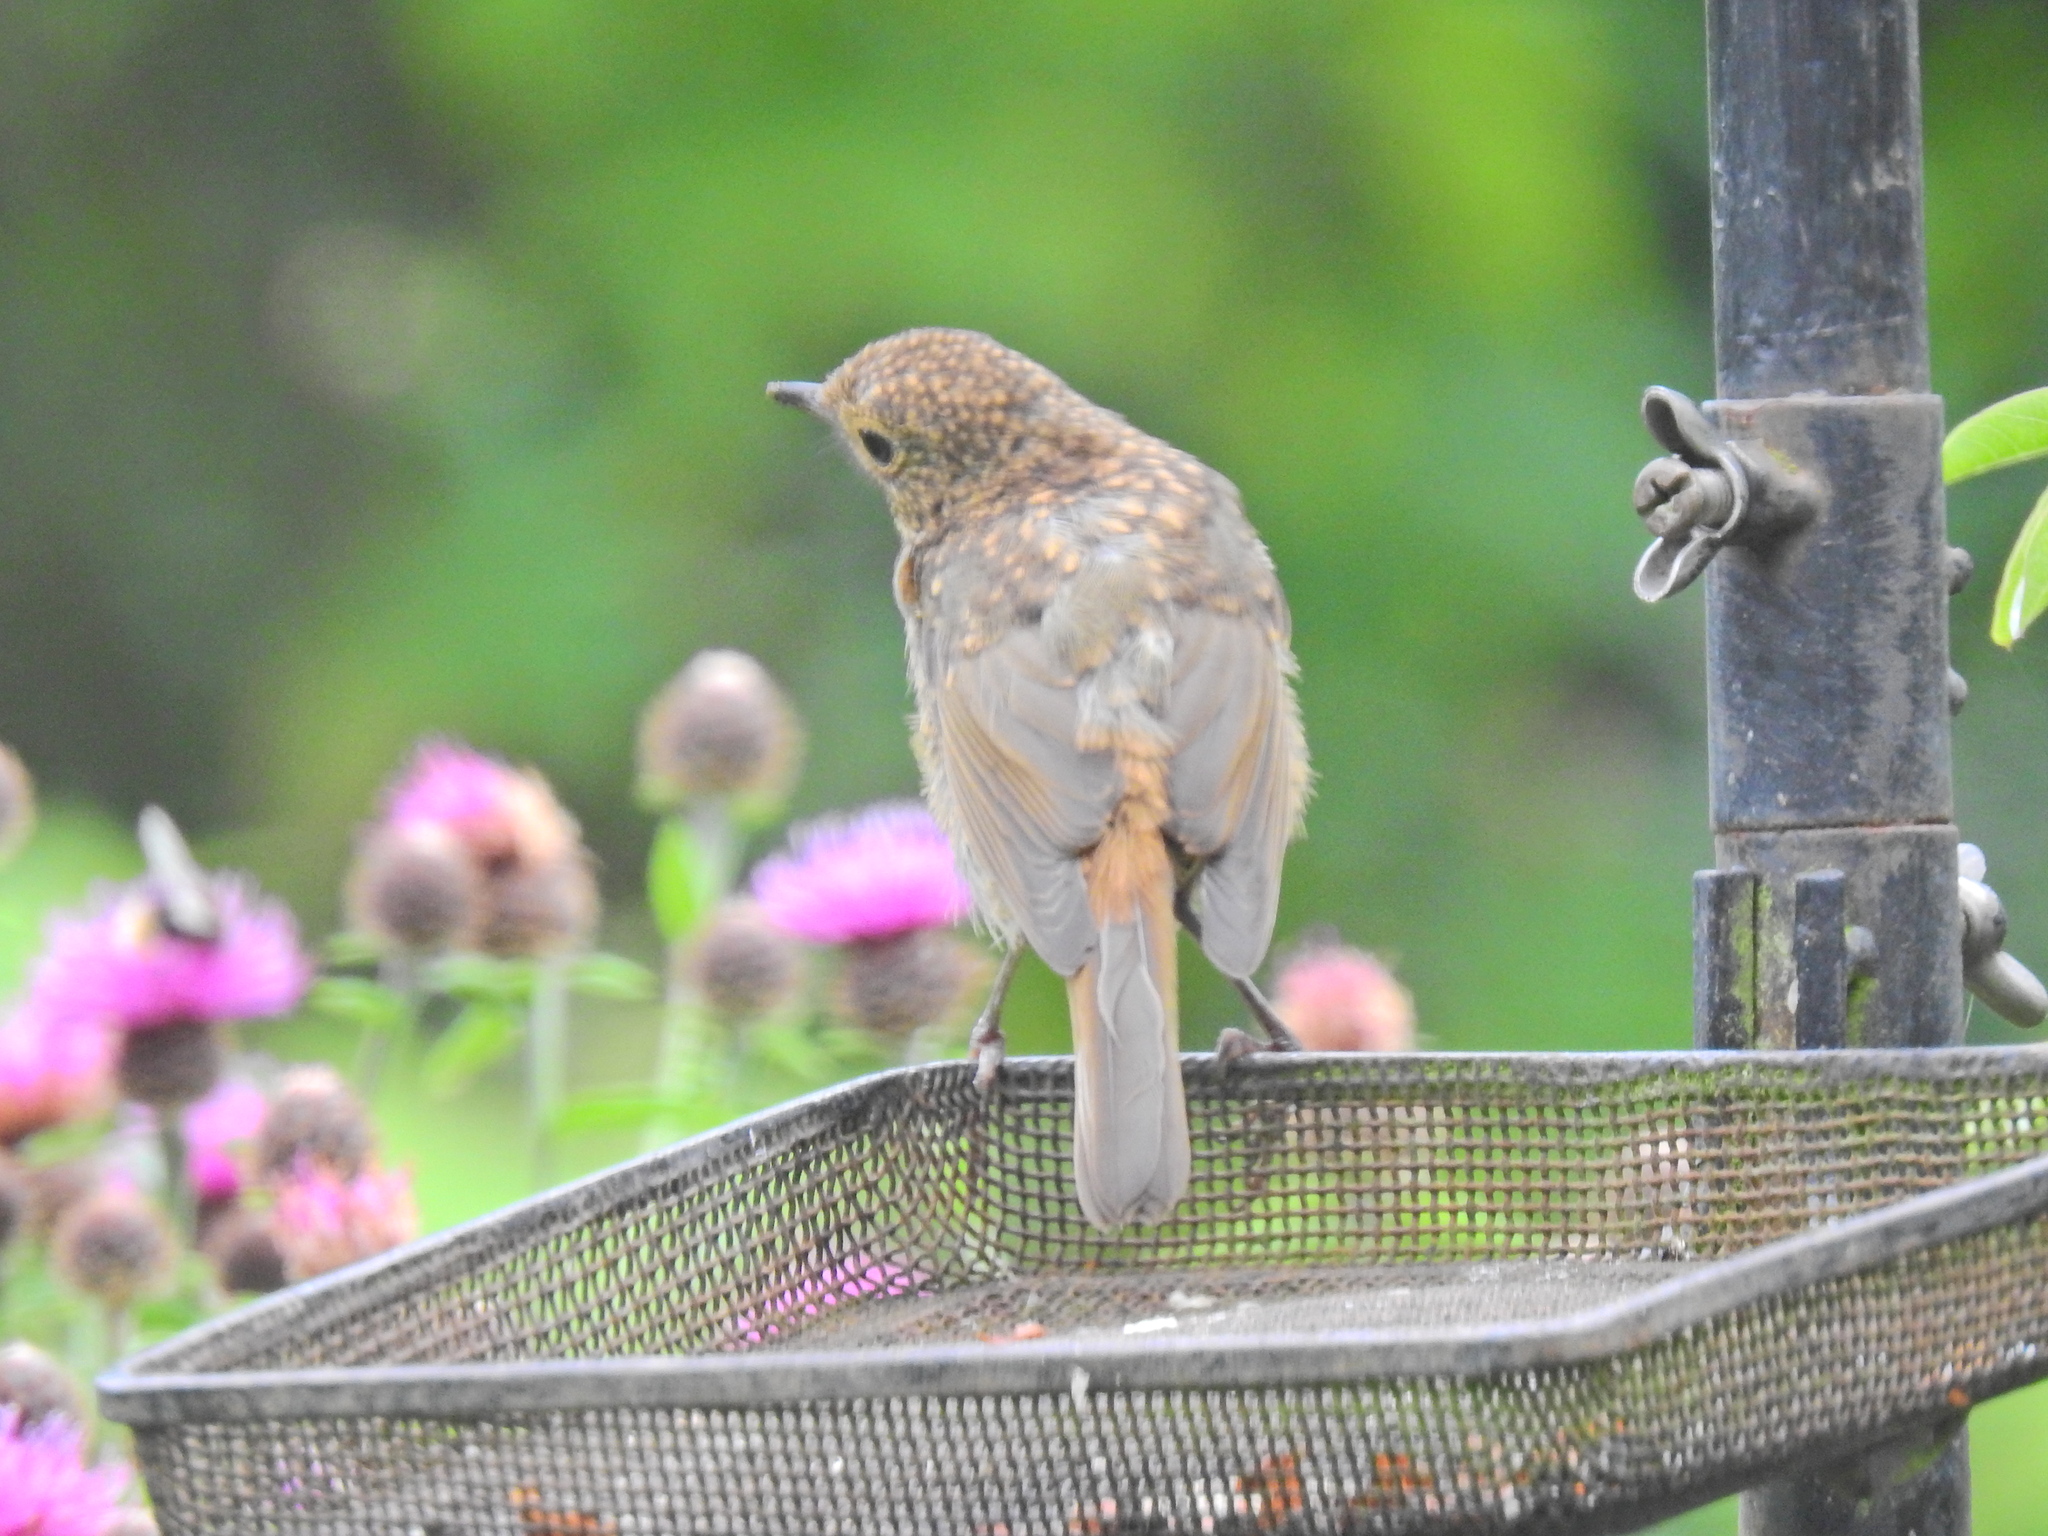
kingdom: Animalia
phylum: Chordata
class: Aves
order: Passeriformes
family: Muscicapidae
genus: Erithacus
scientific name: Erithacus rubecula
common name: European robin
